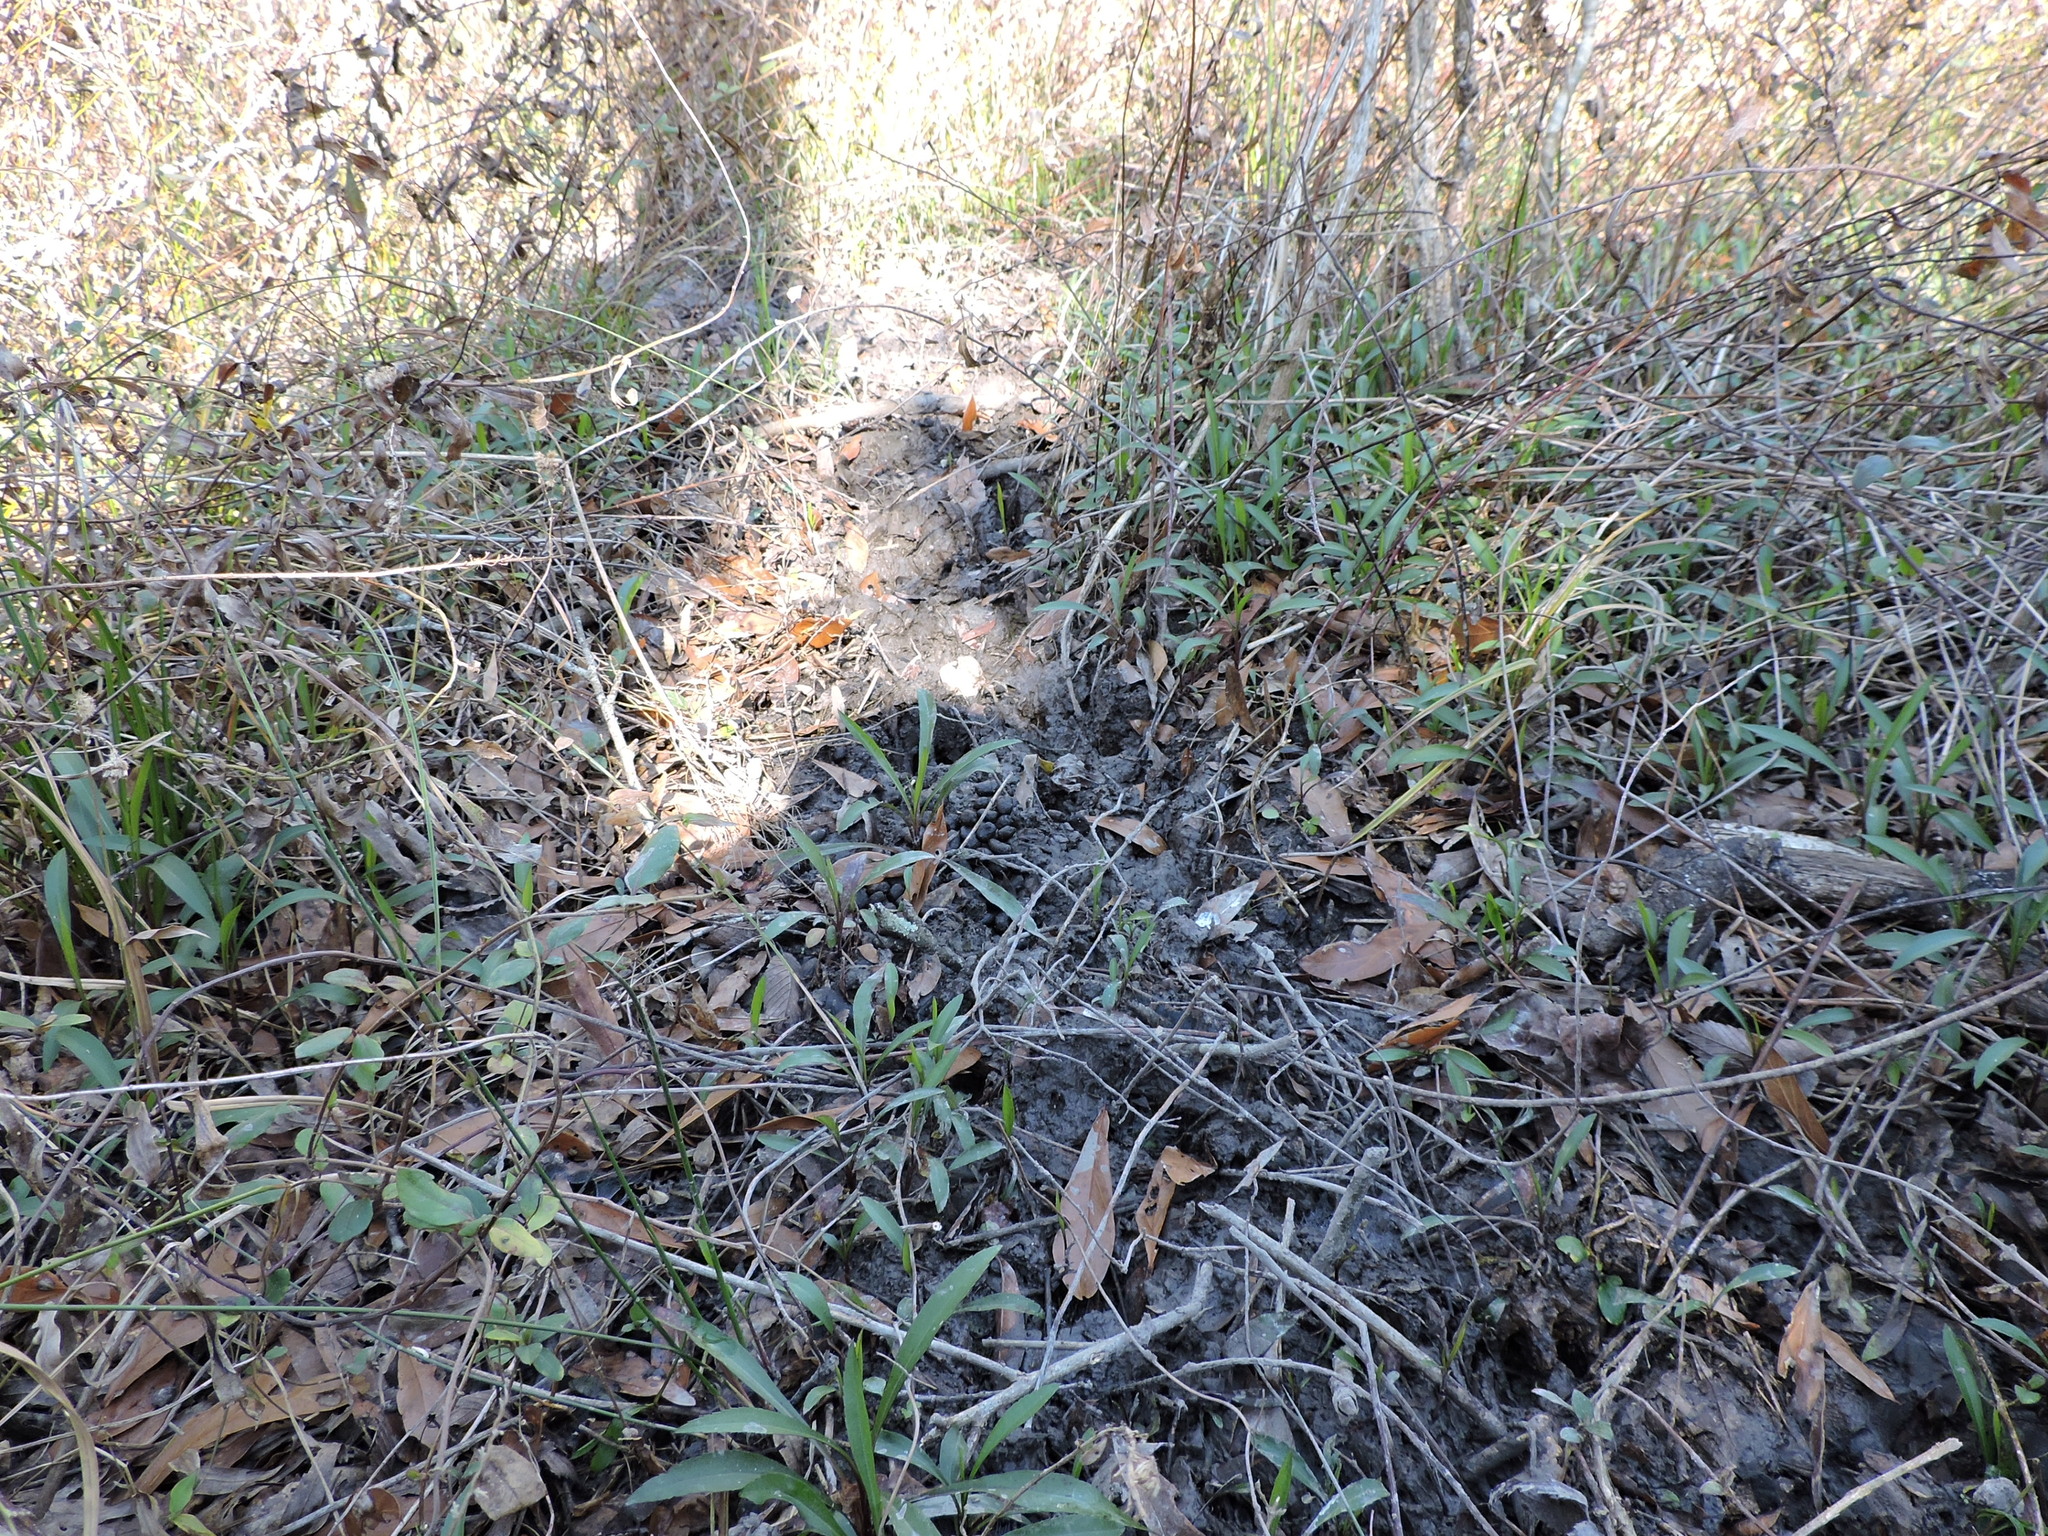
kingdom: Animalia
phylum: Chordata
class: Mammalia
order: Artiodactyla
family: Suidae
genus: Sus
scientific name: Sus scrofa
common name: Wild boar
